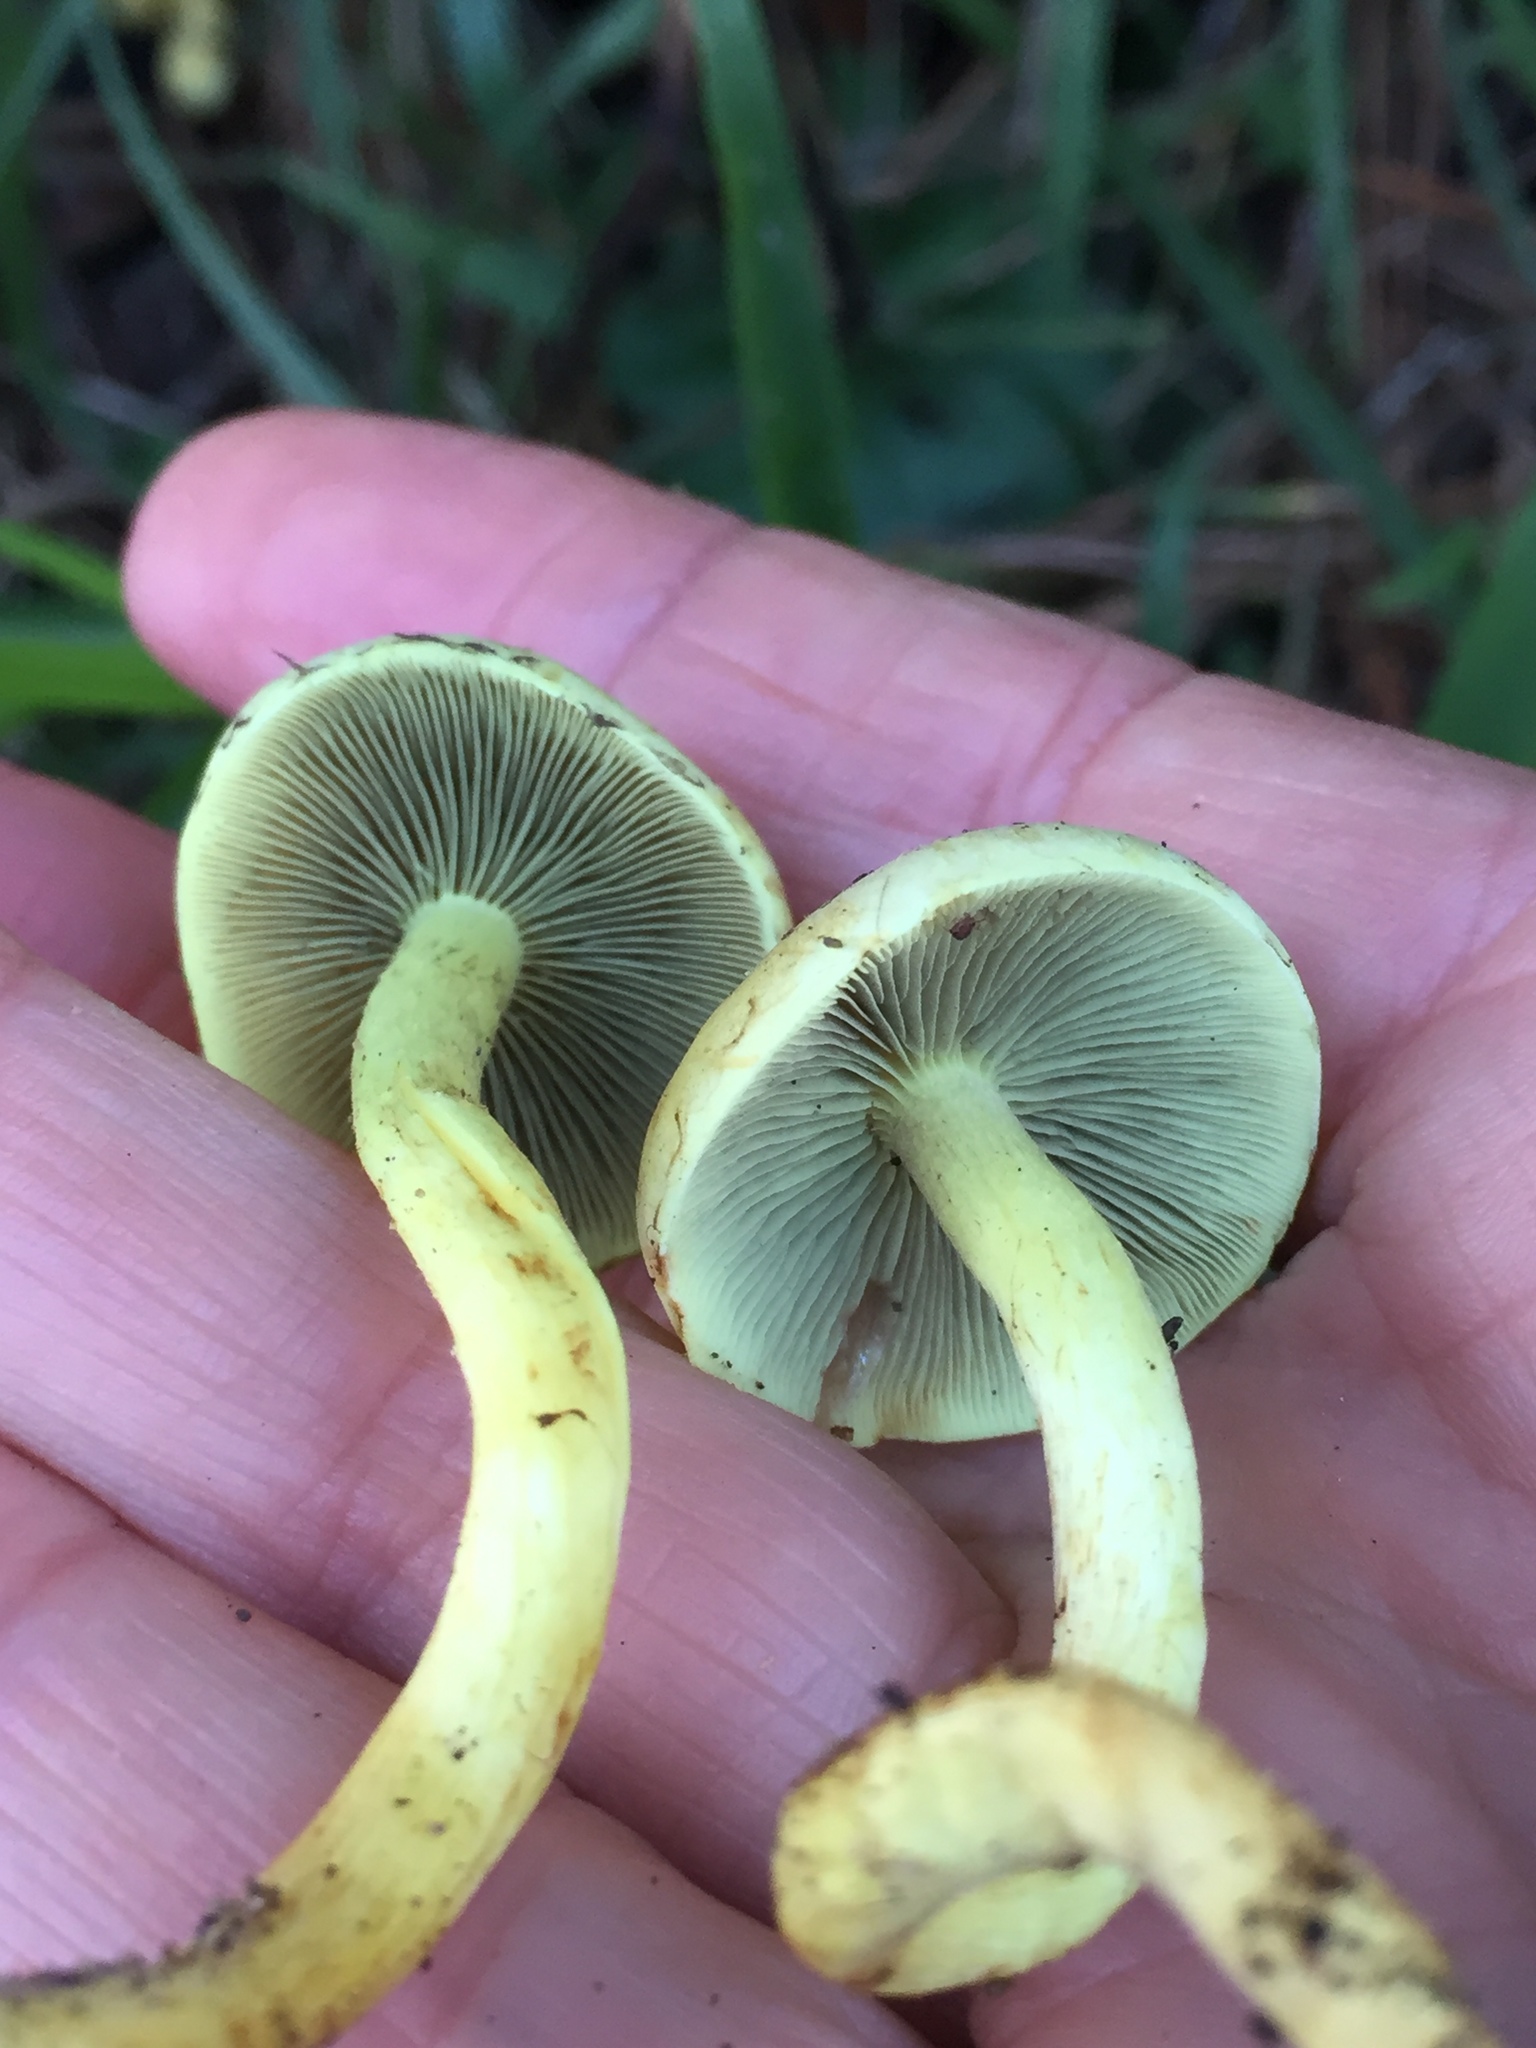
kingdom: Fungi
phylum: Basidiomycota
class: Agaricomycetes
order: Agaricales
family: Strophariaceae
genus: Hypholoma
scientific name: Hypholoma fasciculare
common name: Sulphur tuft
